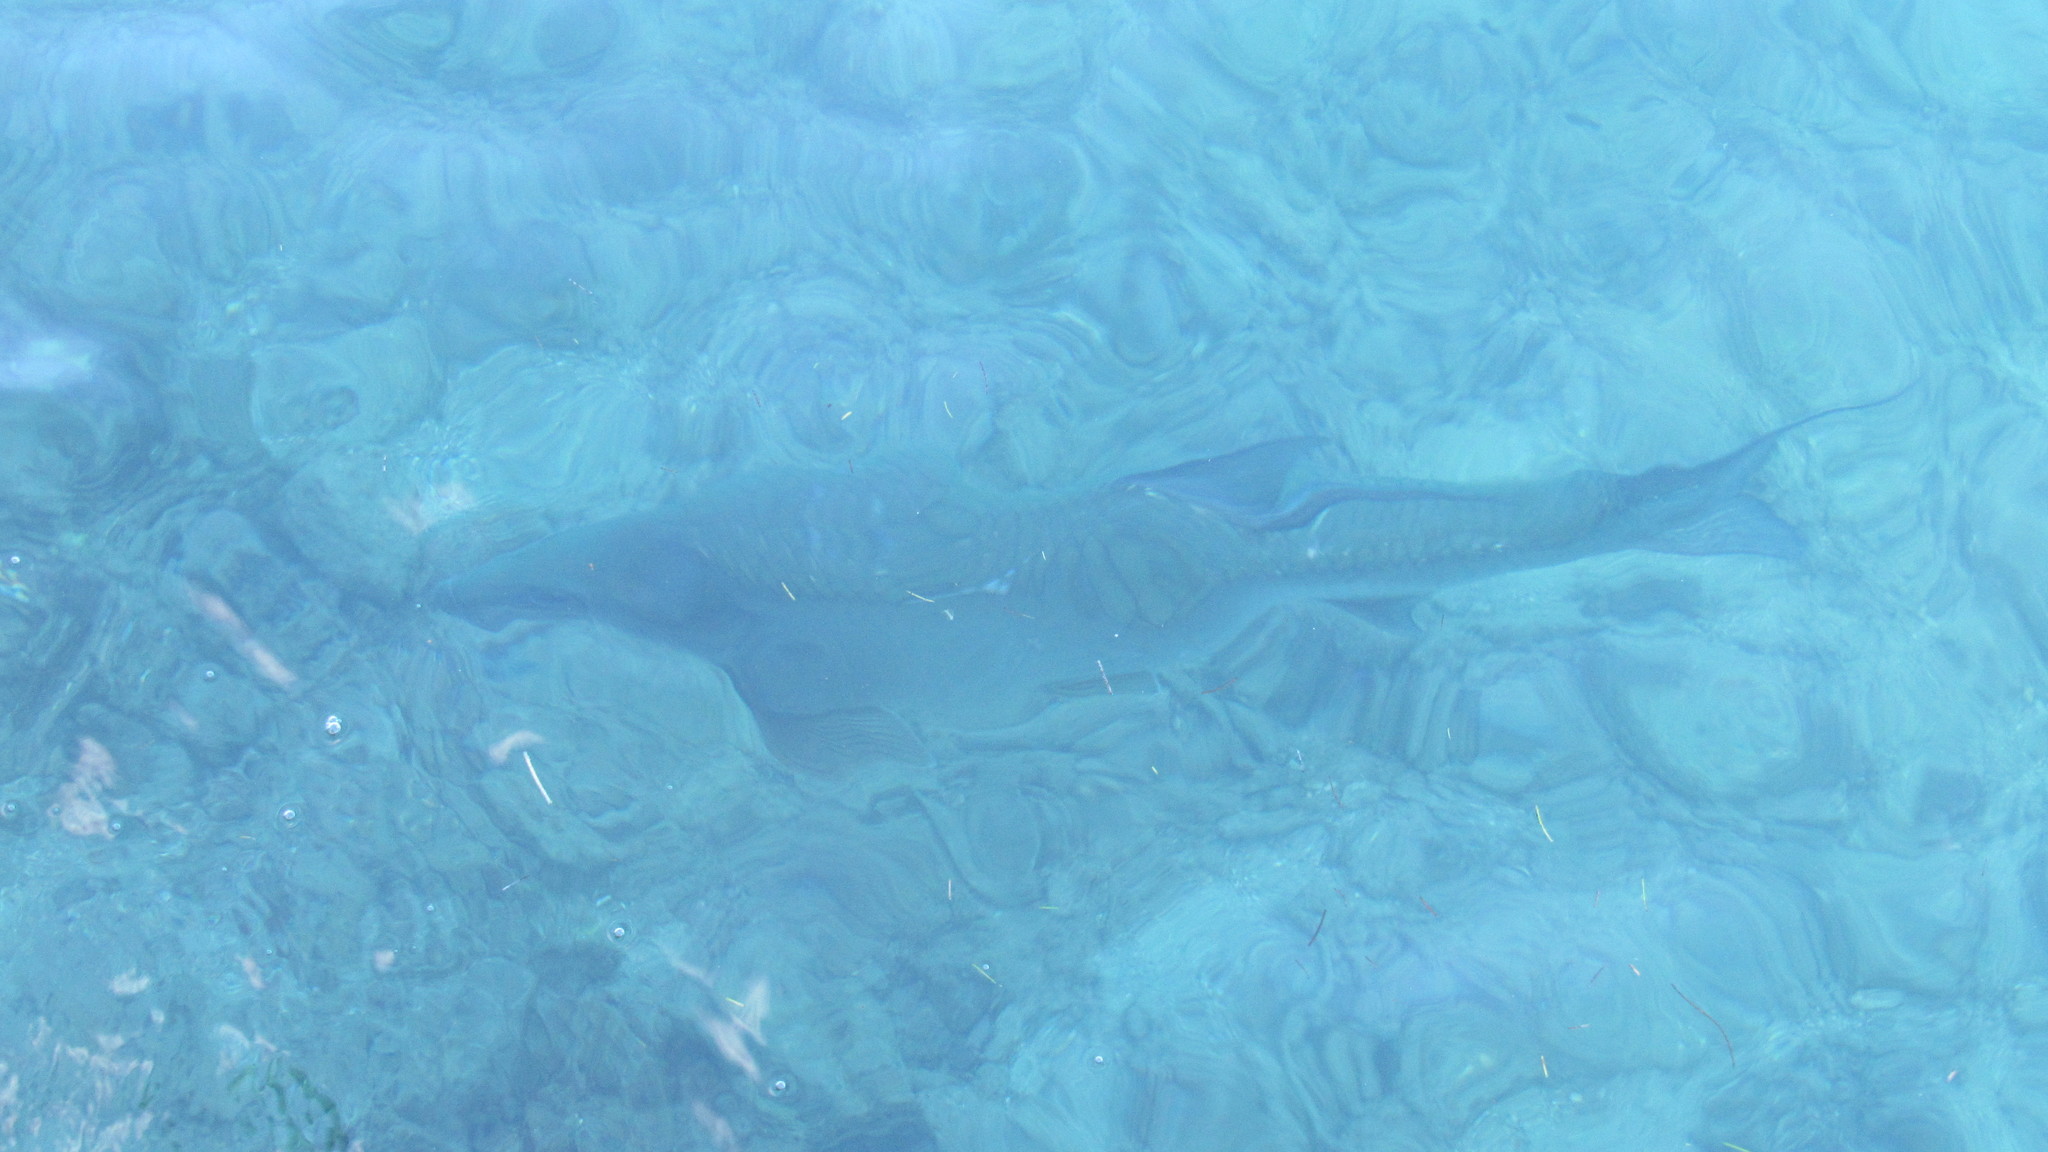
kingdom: Animalia
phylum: Chordata
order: Elopiformes
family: Megalopidae
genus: Megalops
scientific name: Megalops atlanticus
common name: Tarpon
